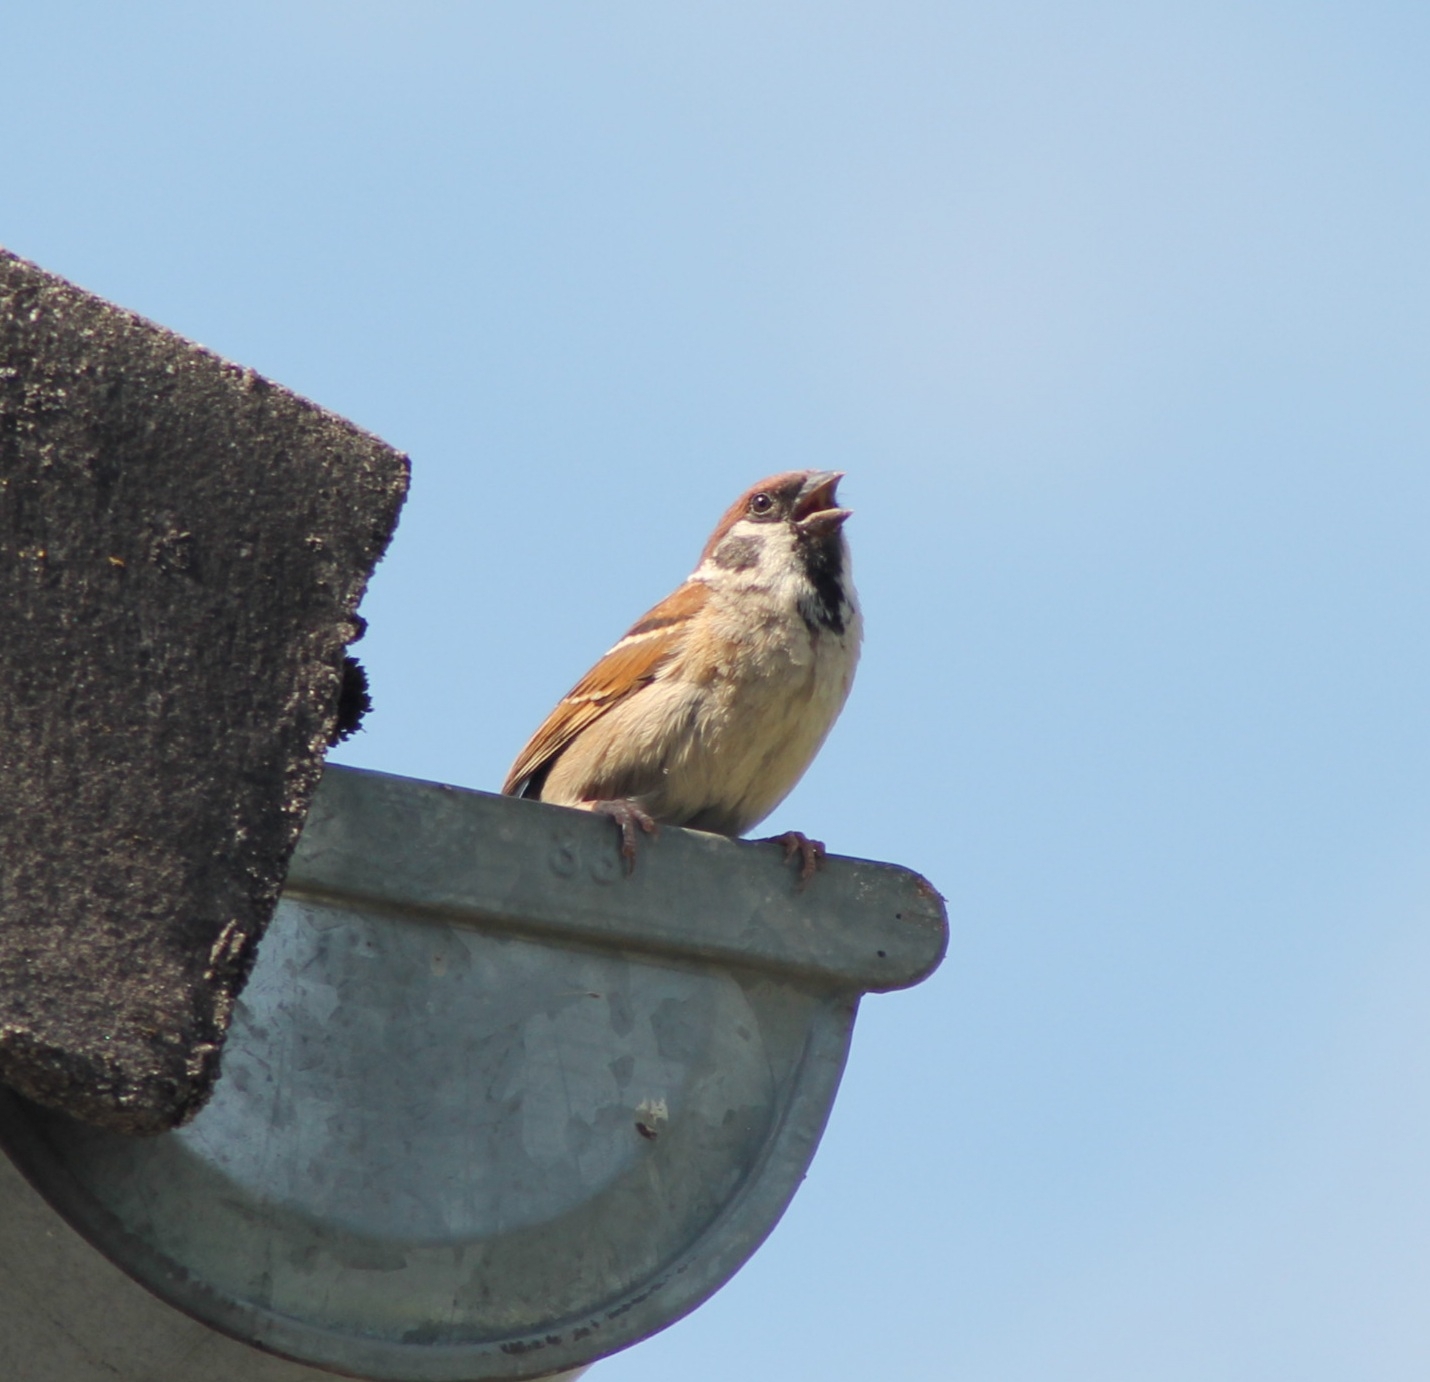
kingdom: Animalia
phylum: Chordata
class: Aves
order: Passeriformes
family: Passeridae
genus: Passer
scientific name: Passer montanus
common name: Eurasian tree sparrow
